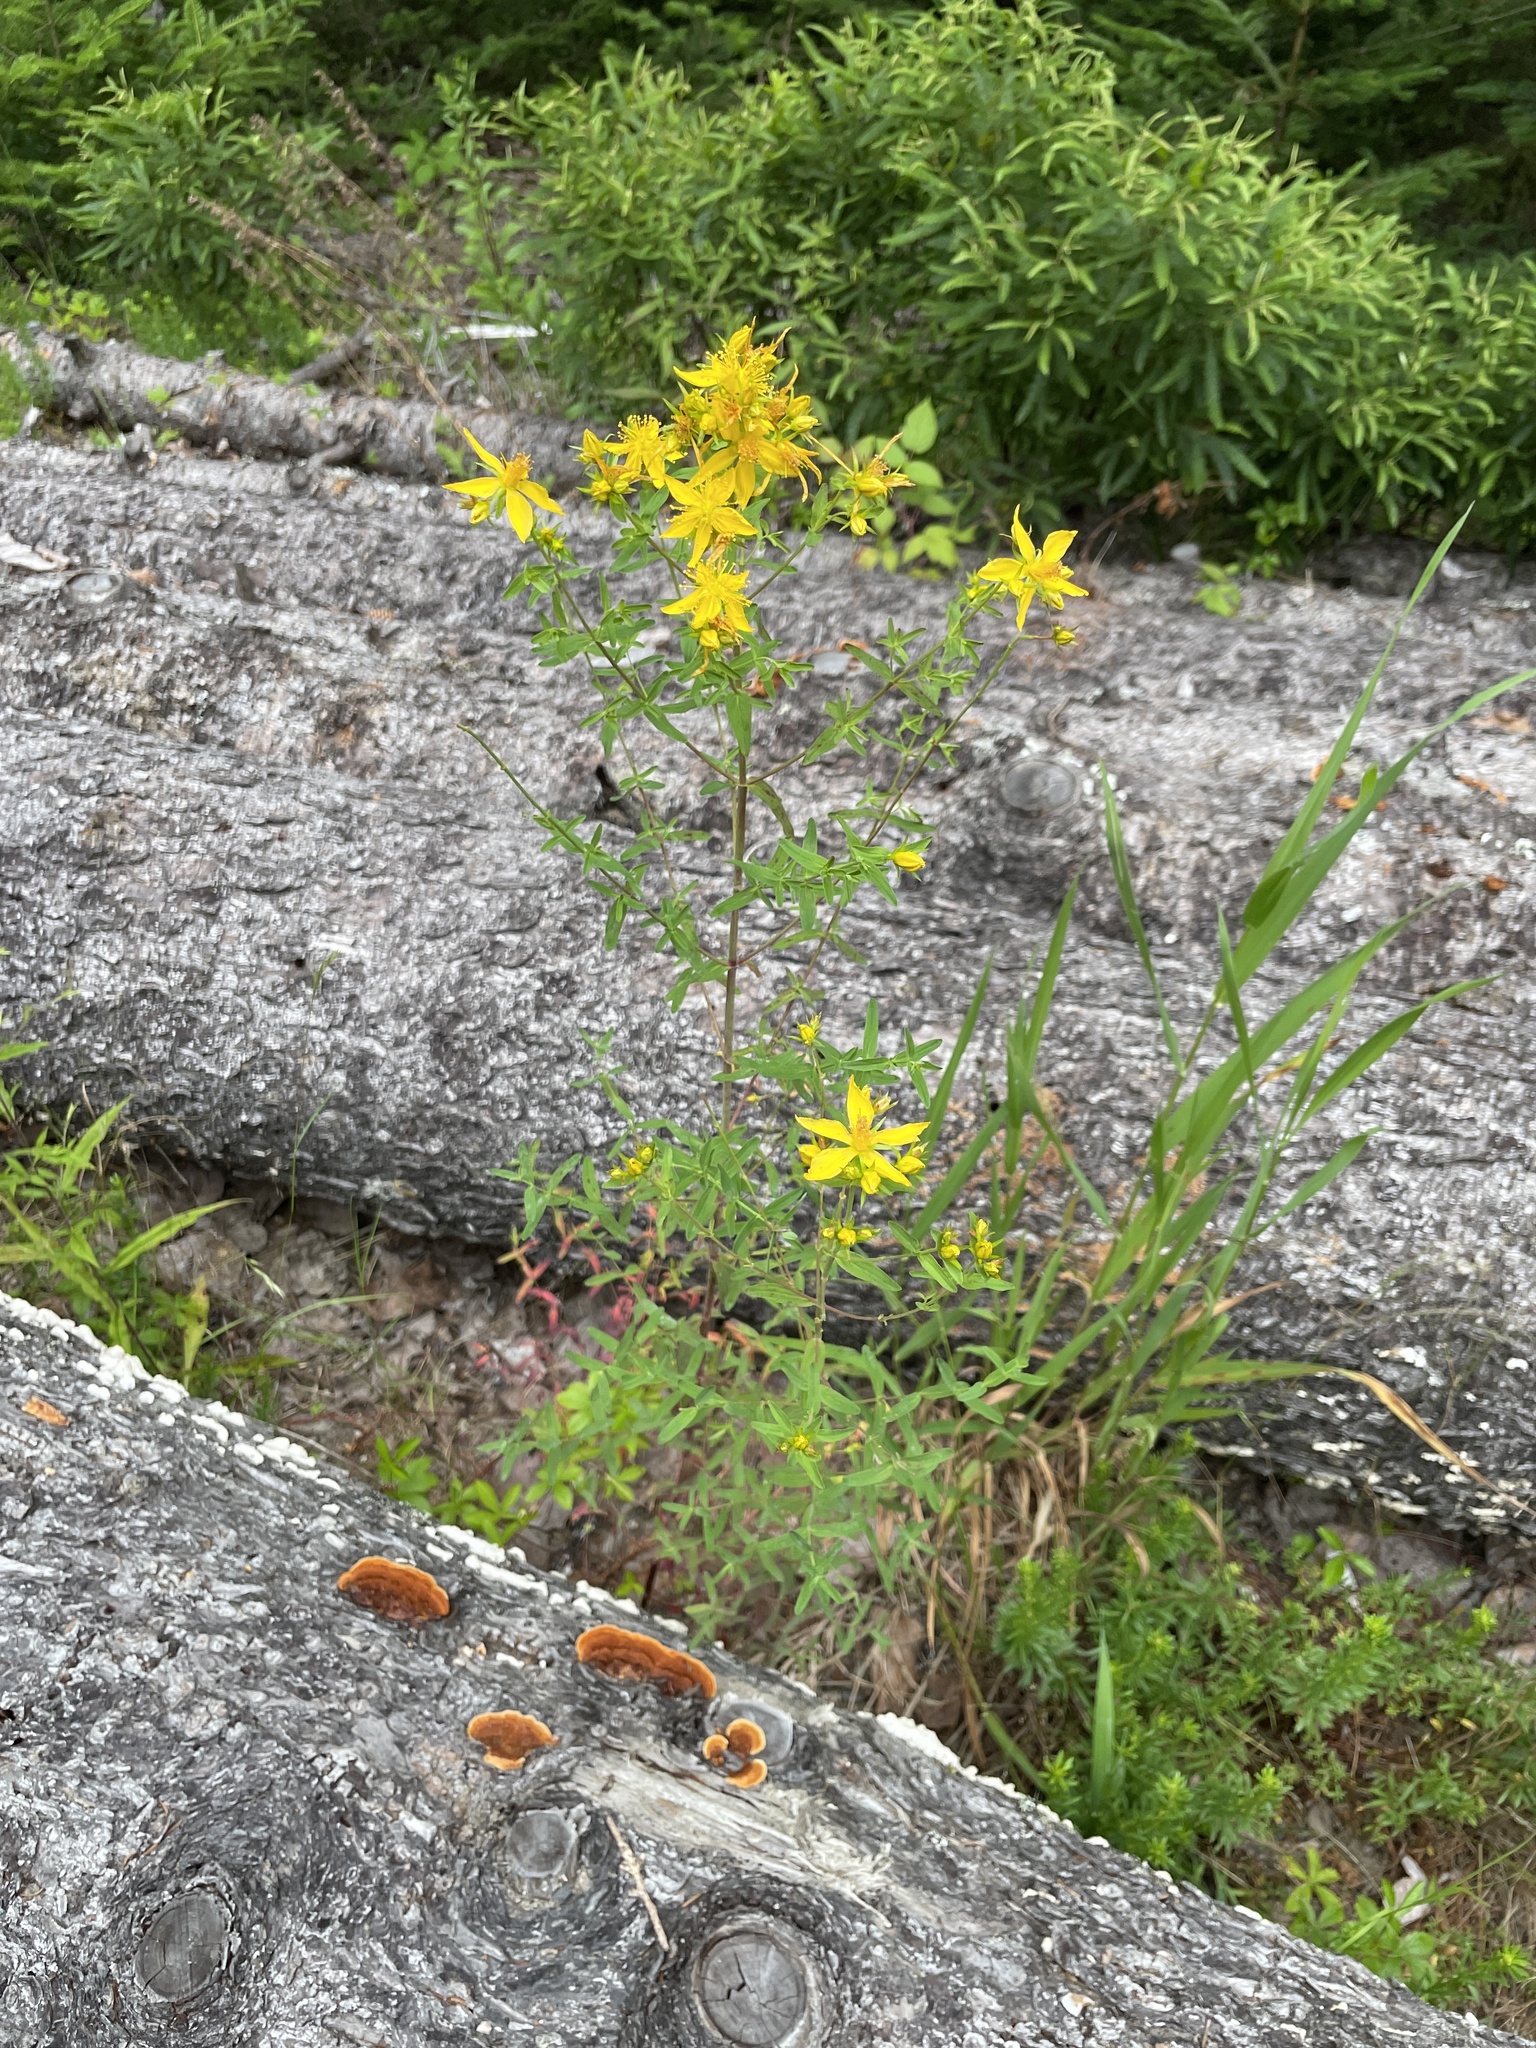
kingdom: Plantae
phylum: Tracheophyta
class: Magnoliopsida
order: Malpighiales
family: Hypericaceae
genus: Hypericum
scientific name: Hypericum perforatum
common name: Common st. johnswort
